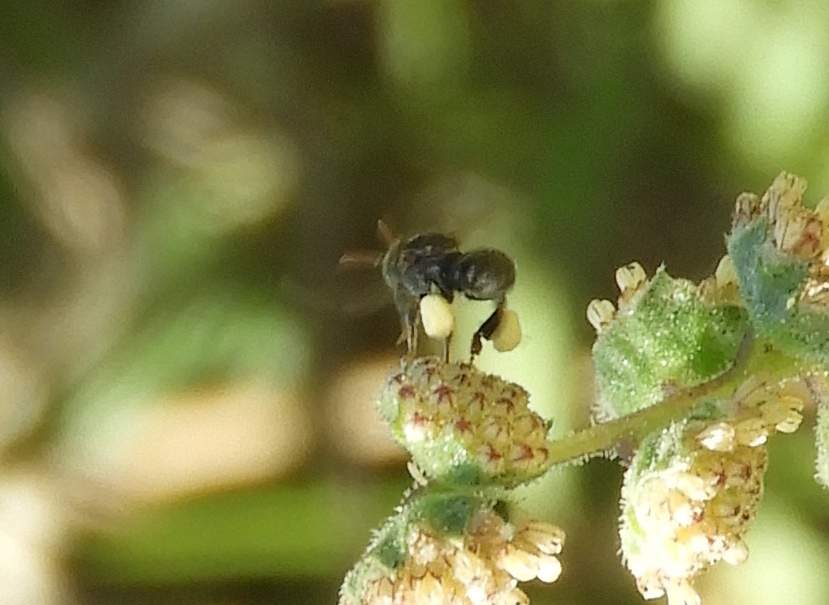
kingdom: Animalia
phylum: Arthropoda
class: Insecta
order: Hymenoptera
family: Apidae
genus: Nannotrigona
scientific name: Nannotrigona perilampoides
